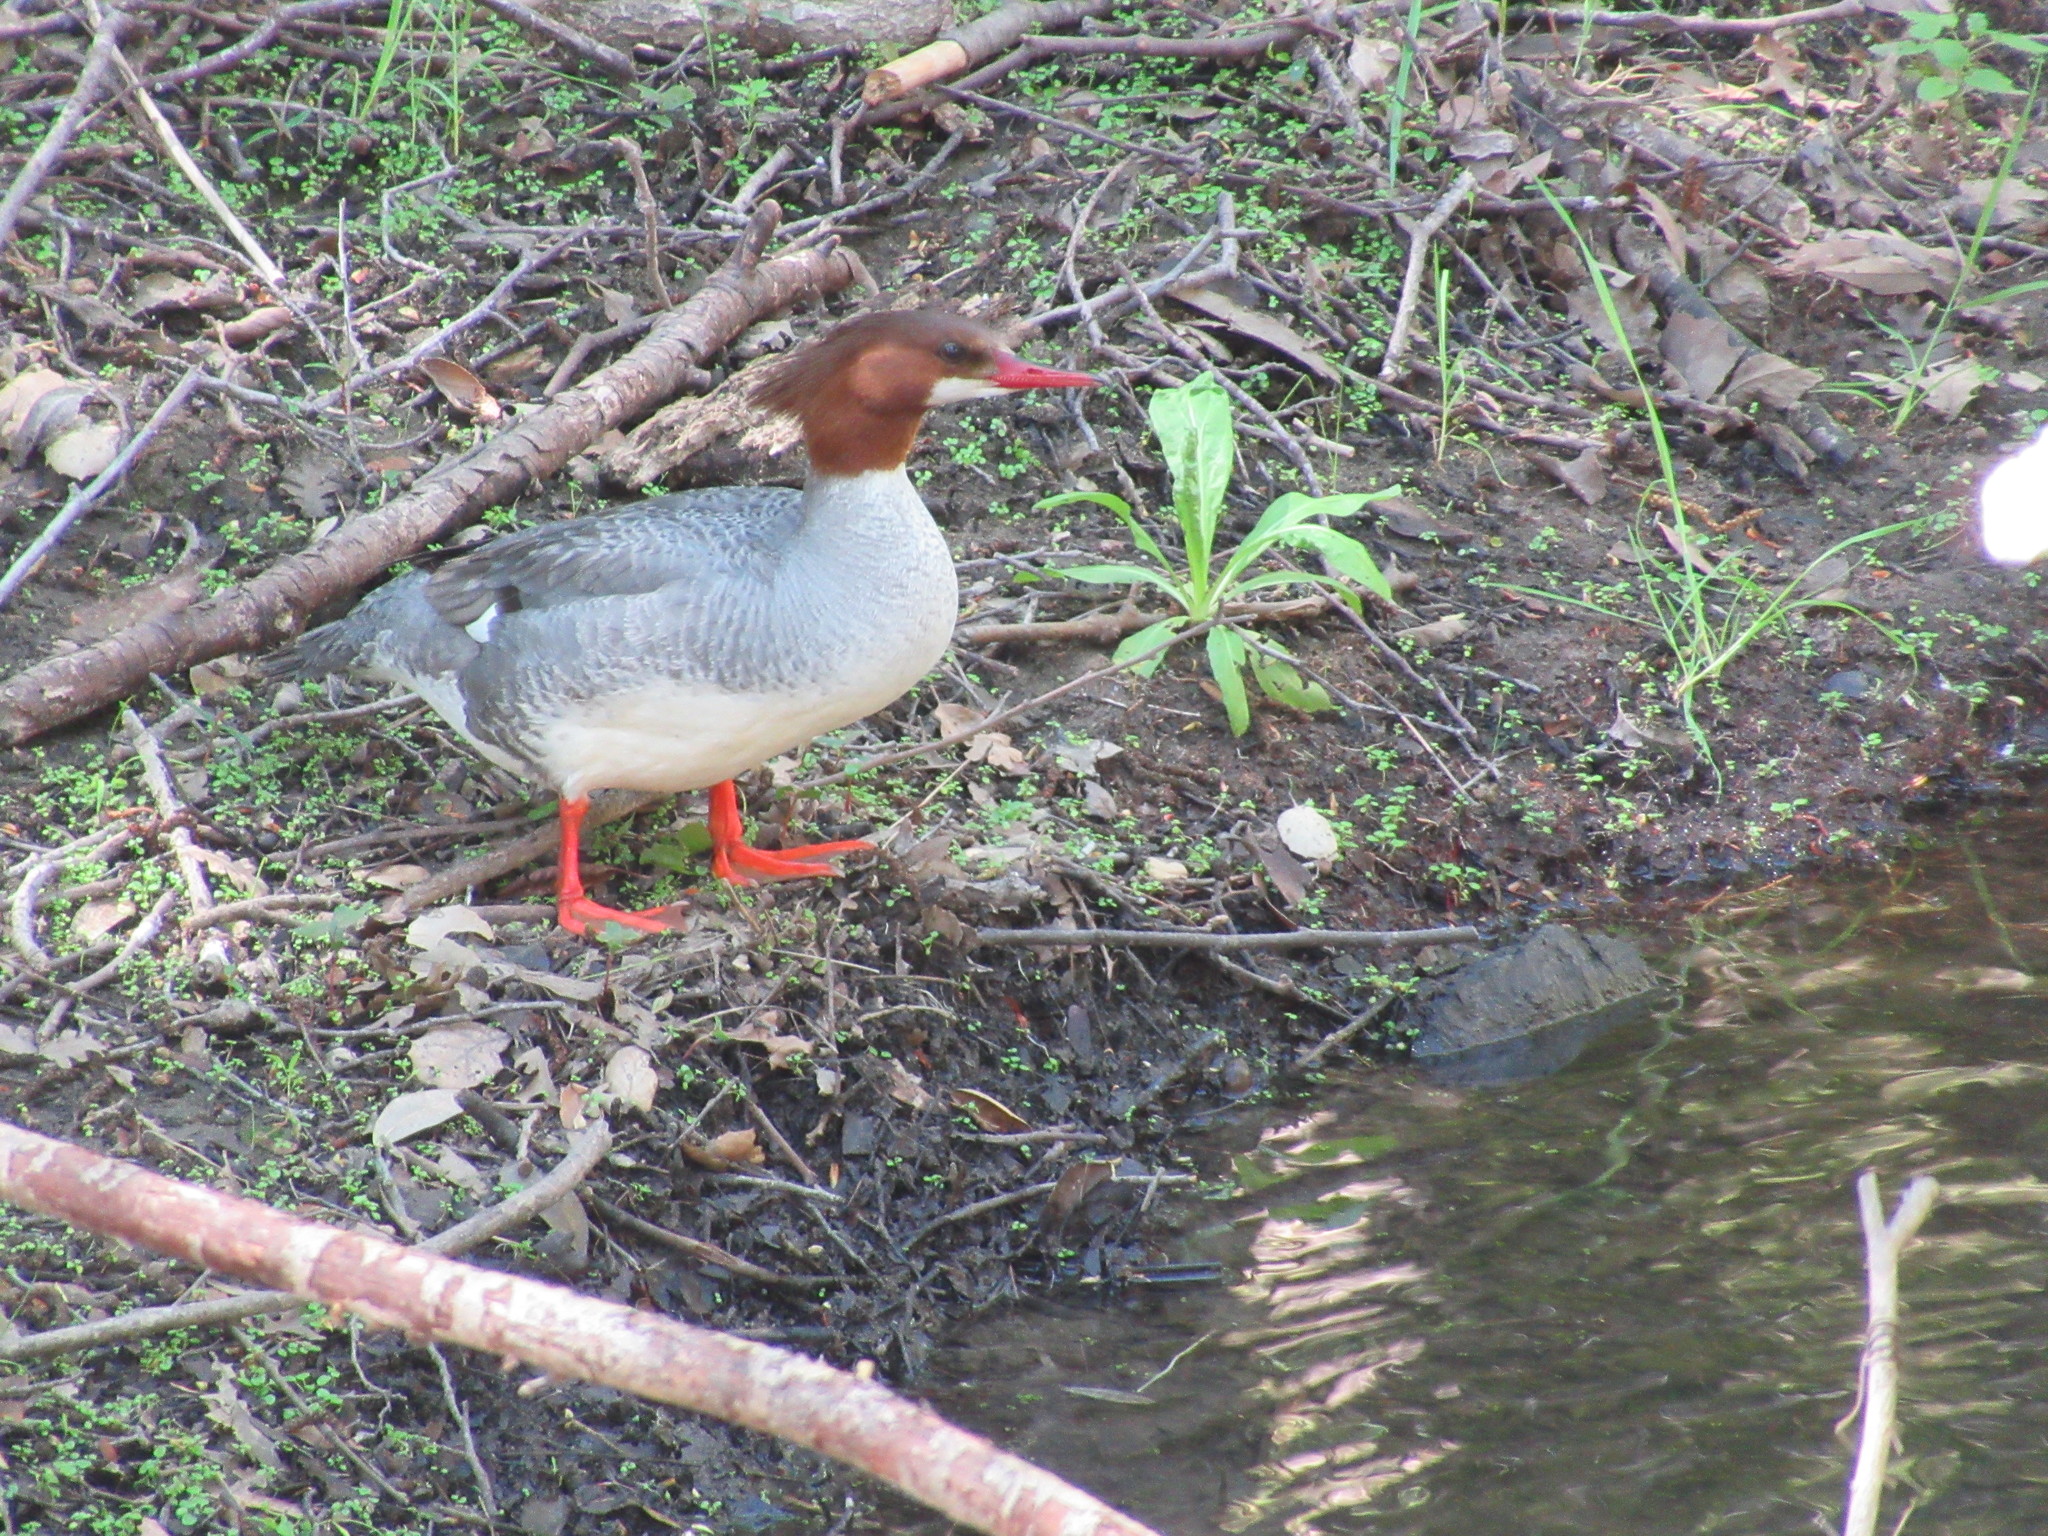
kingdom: Animalia
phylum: Chordata
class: Aves
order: Anseriformes
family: Anatidae
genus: Mergus
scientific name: Mergus merganser
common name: Common merganser
